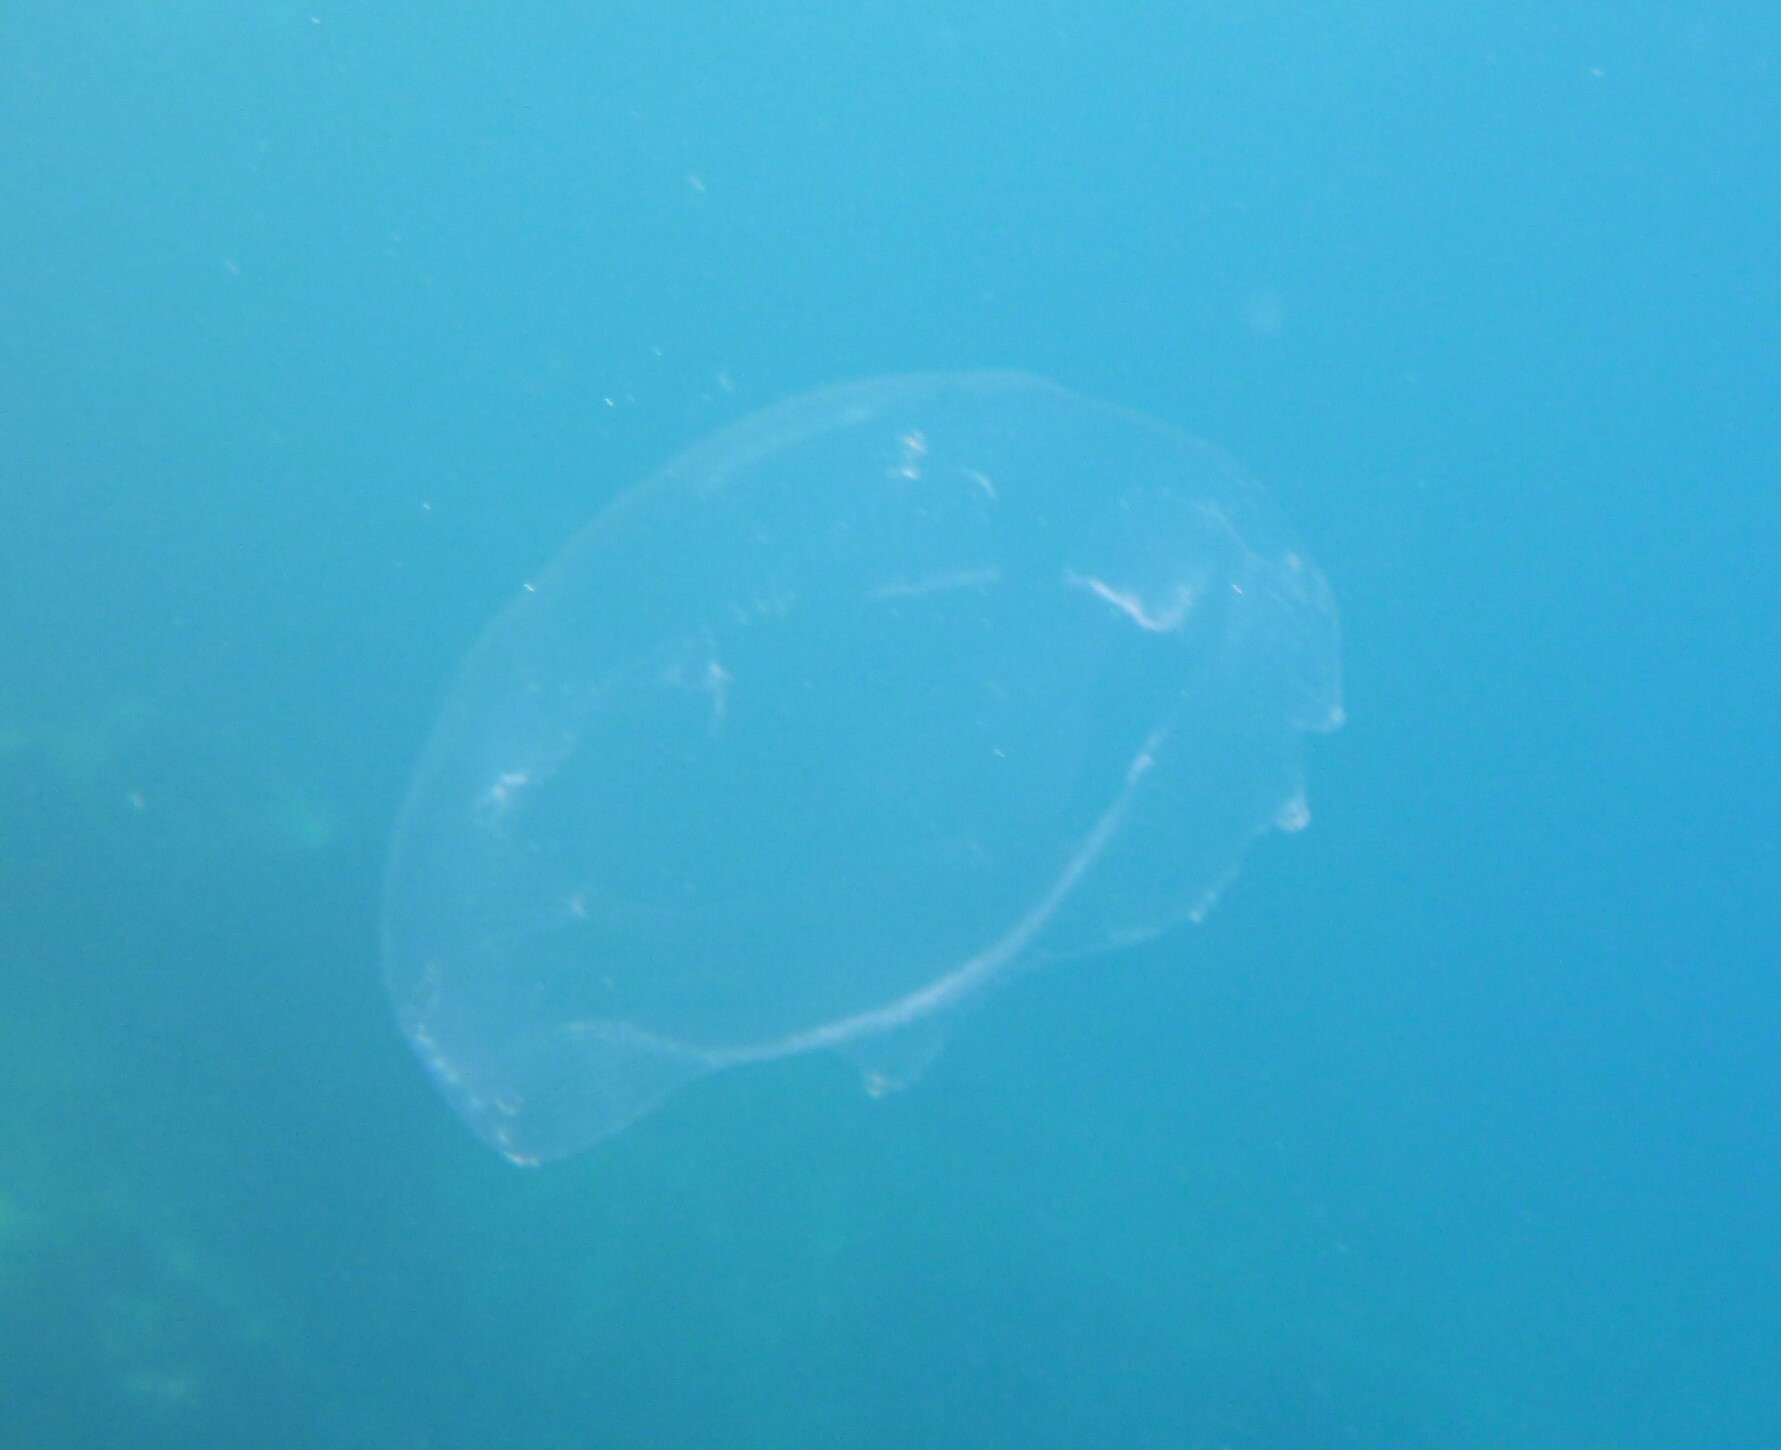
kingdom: Animalia
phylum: Cnidaria
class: Hydrozoa
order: Leptothecata
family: Aequoreidae
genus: Aequorea
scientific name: Aequorea forskalea
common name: Many-ribbed jellyfish
